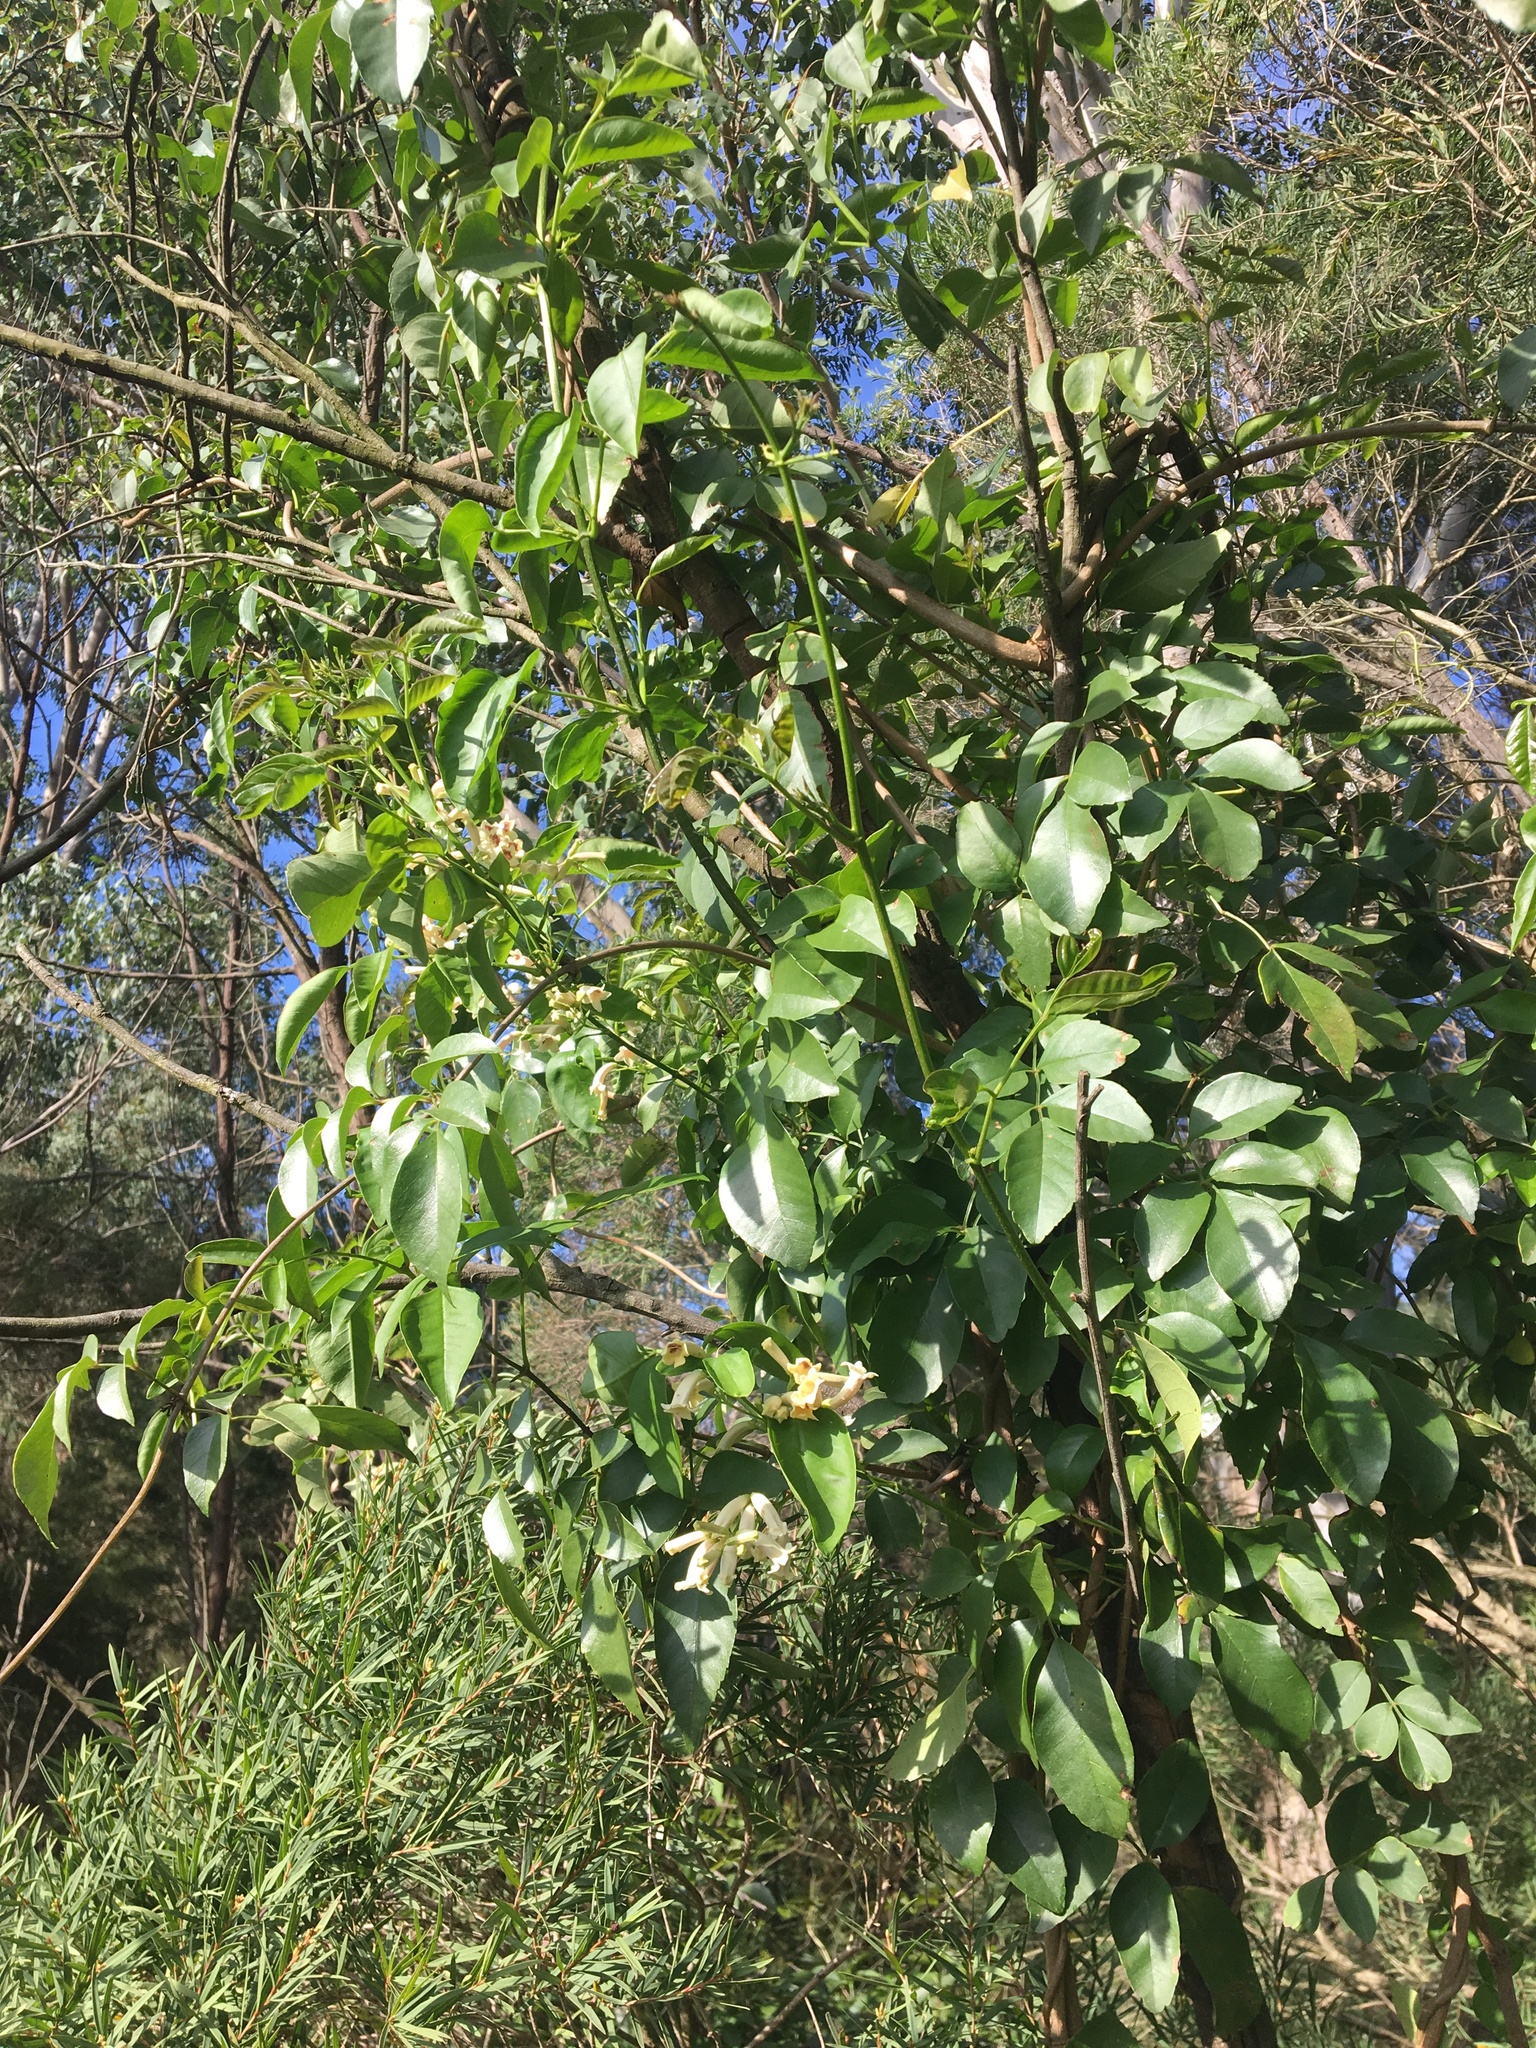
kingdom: Plantae
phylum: Tracheophyta
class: Magnoliopsida
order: Lamiales
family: Bignoniaceae
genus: Pandorea
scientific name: Pandorea pandorana
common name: Wonga-wonga-vine
